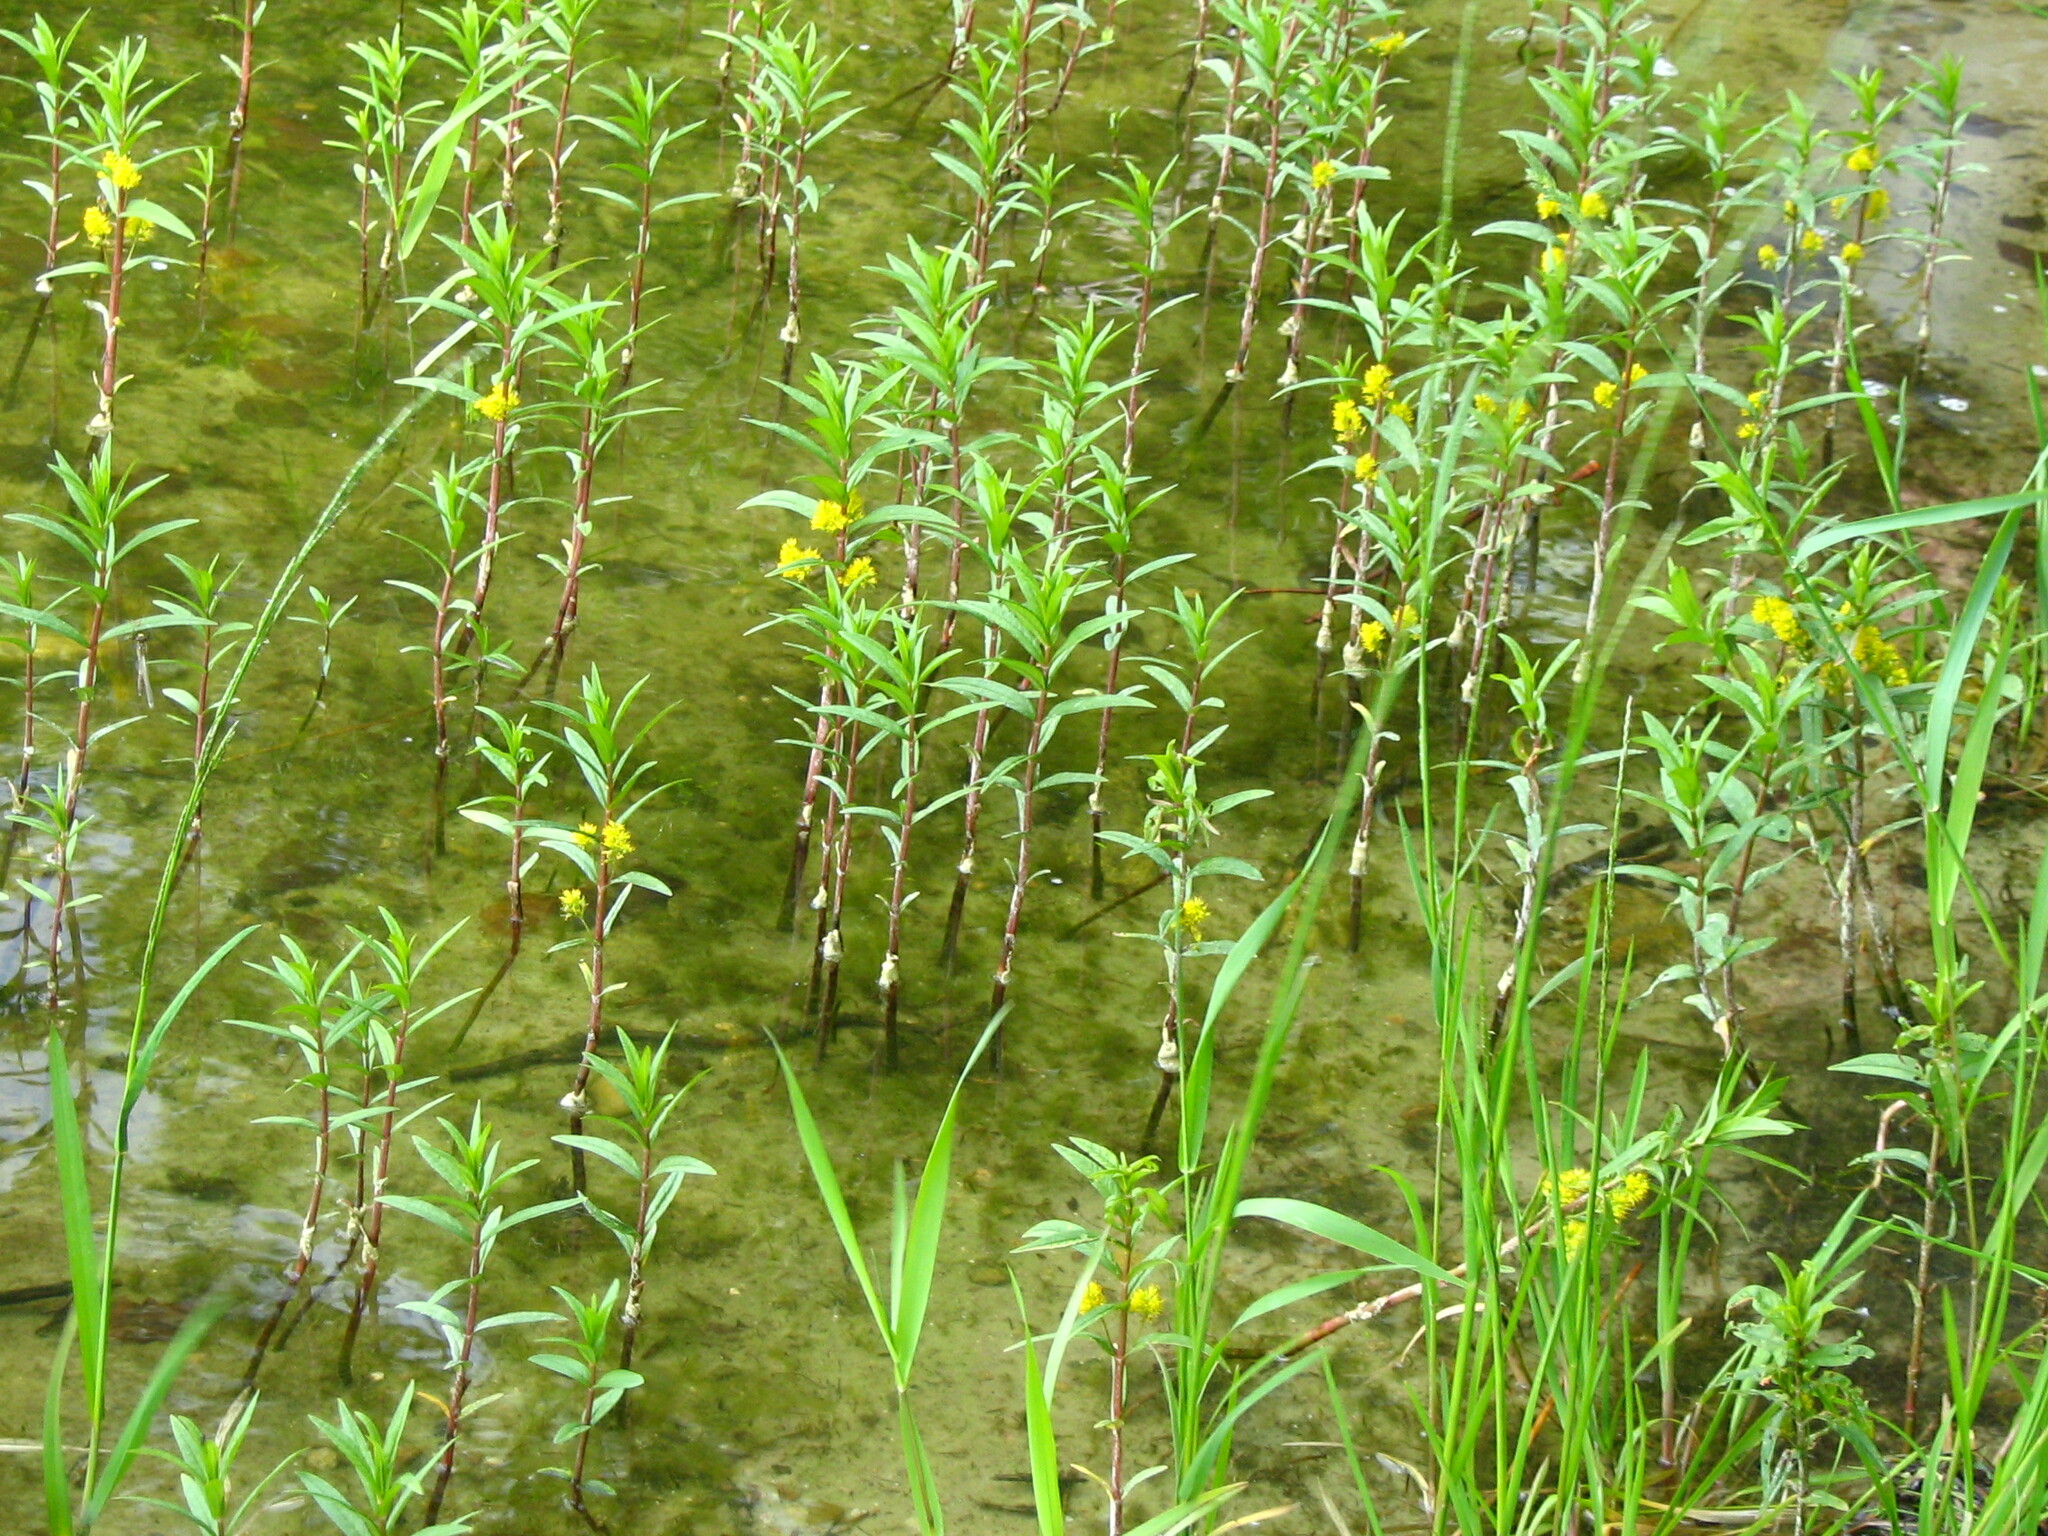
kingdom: Plantae
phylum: Tracheophyta
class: Magnoliopsida
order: Ericales
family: Primulaceae
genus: Lysimachia
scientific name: Lysimachia thyrsiflora
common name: Tufted loosestrife
